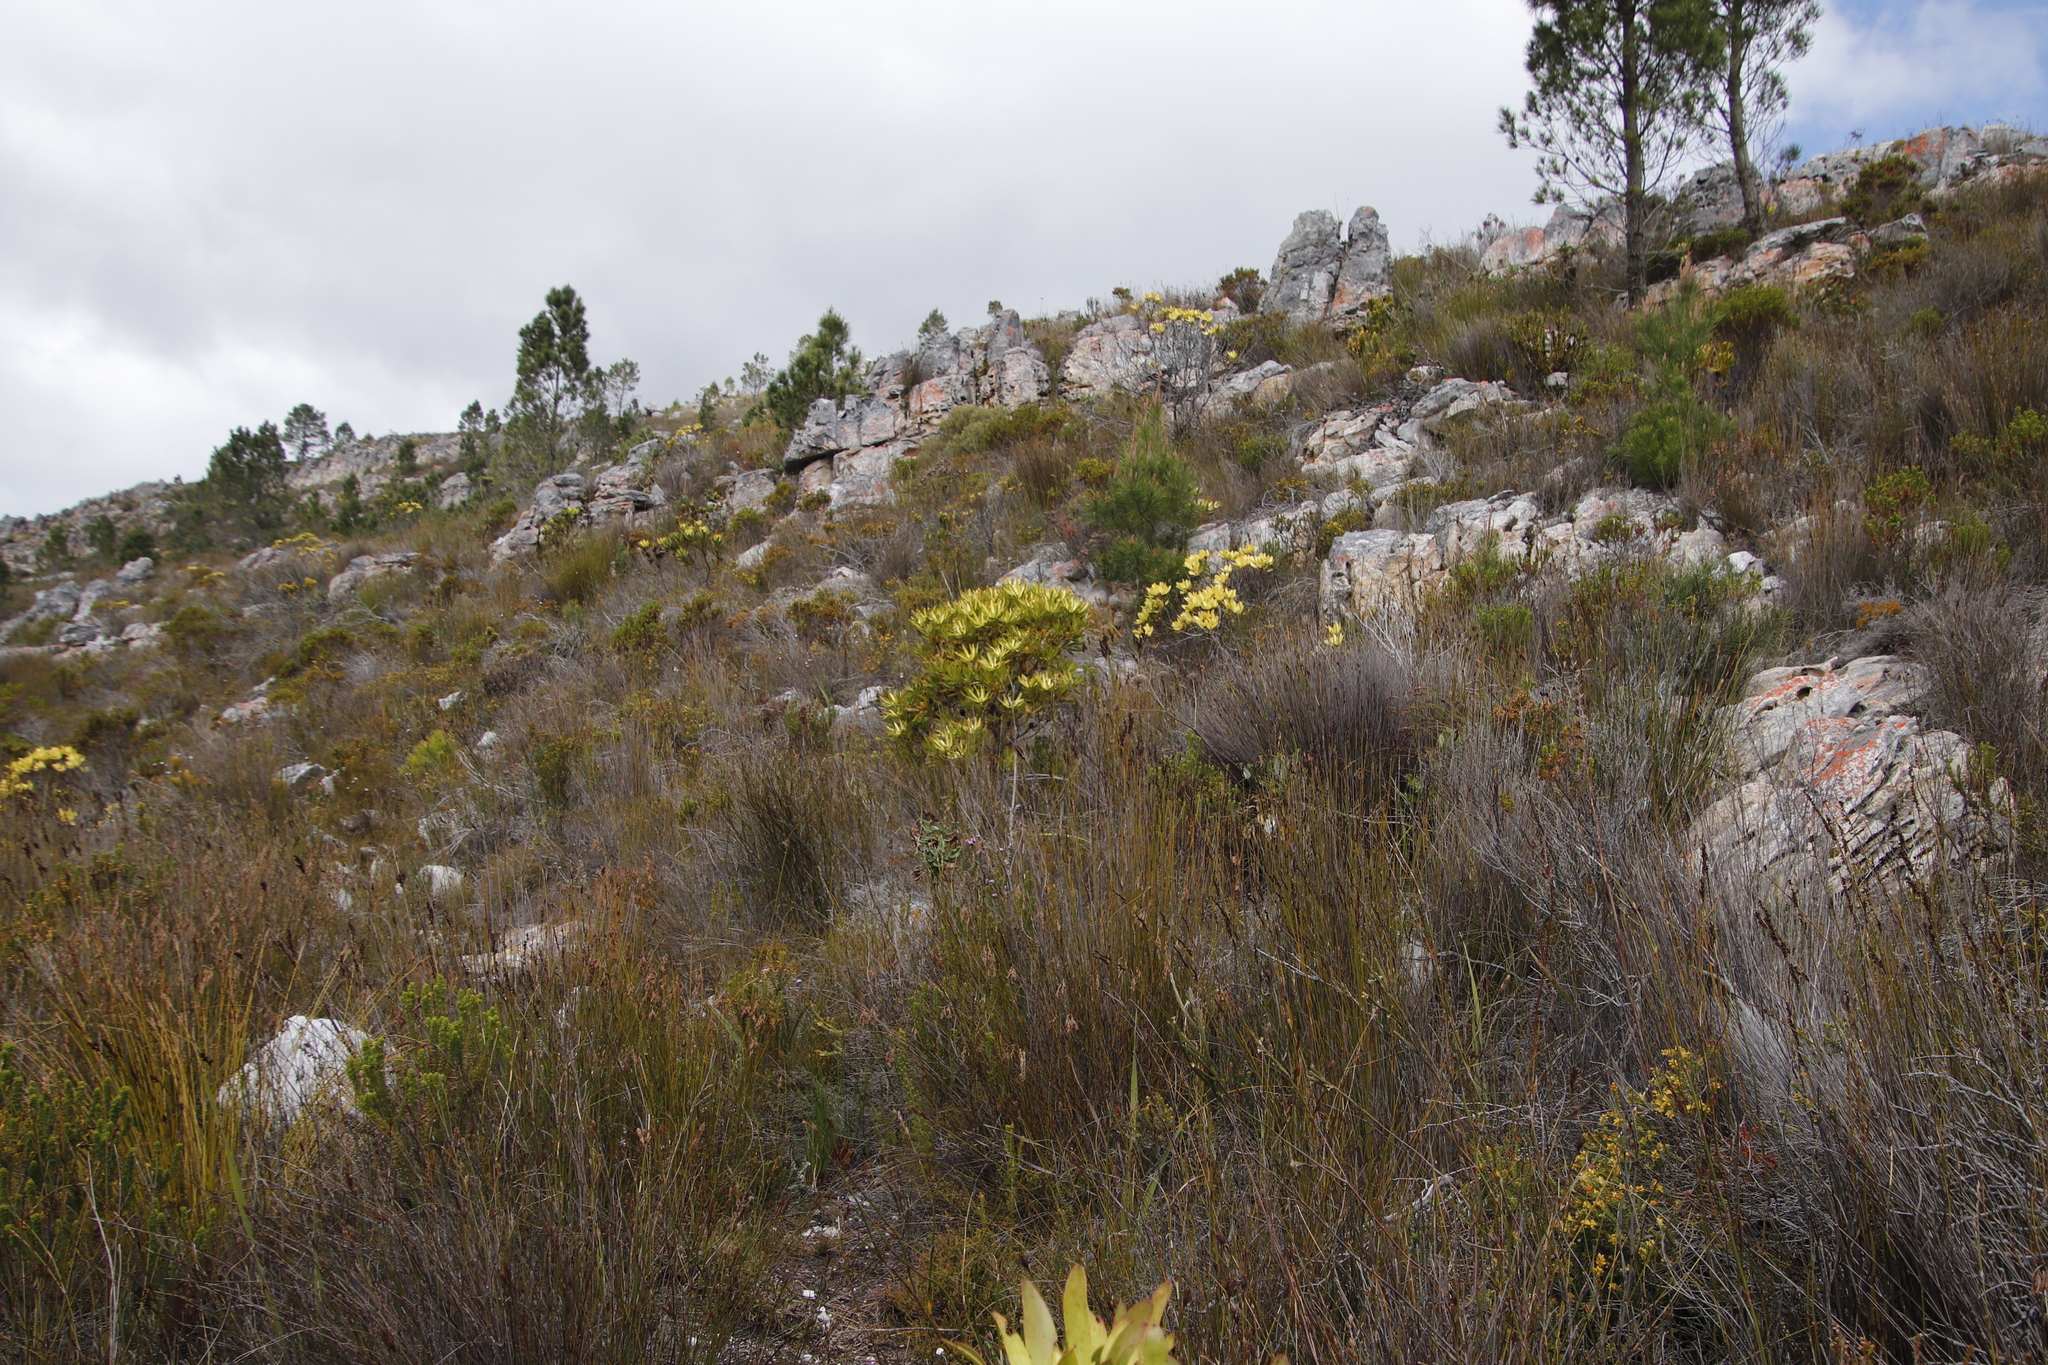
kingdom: Plantae
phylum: Tracheophyta
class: Magnoliopsida
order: Proteales
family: Proteaceae
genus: Leucadendron
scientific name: Leucadendron gandogeri
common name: Broad-leaf conebush
